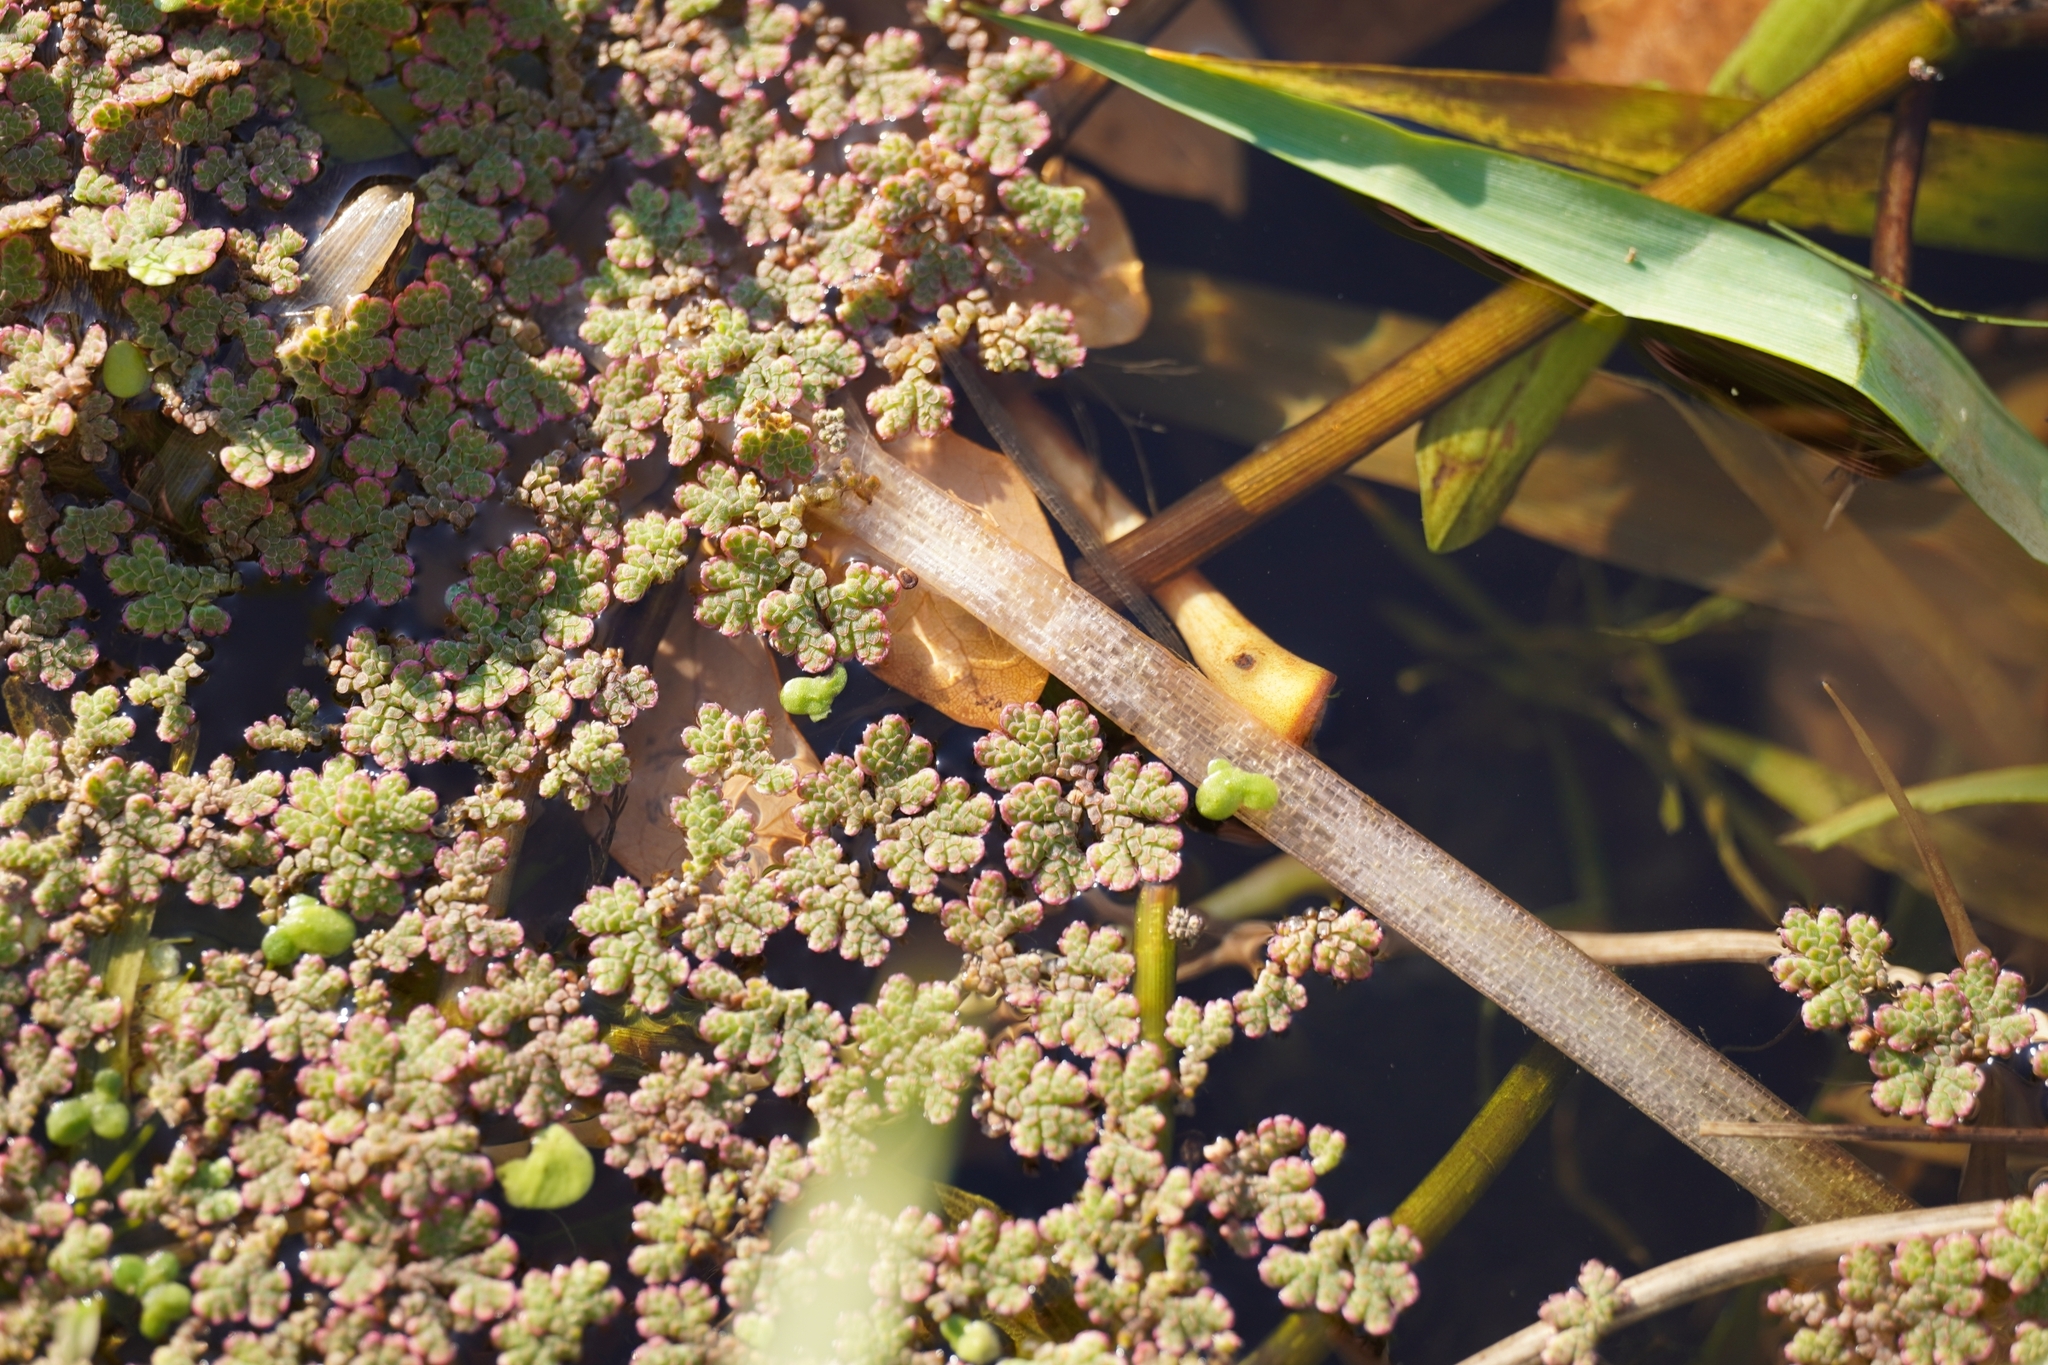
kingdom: Plantae
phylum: Tracheophyta
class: Polypodiopsida
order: Salviniales
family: Salviniaceae
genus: Azolla
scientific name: Azolla filiculoides
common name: Water fern
